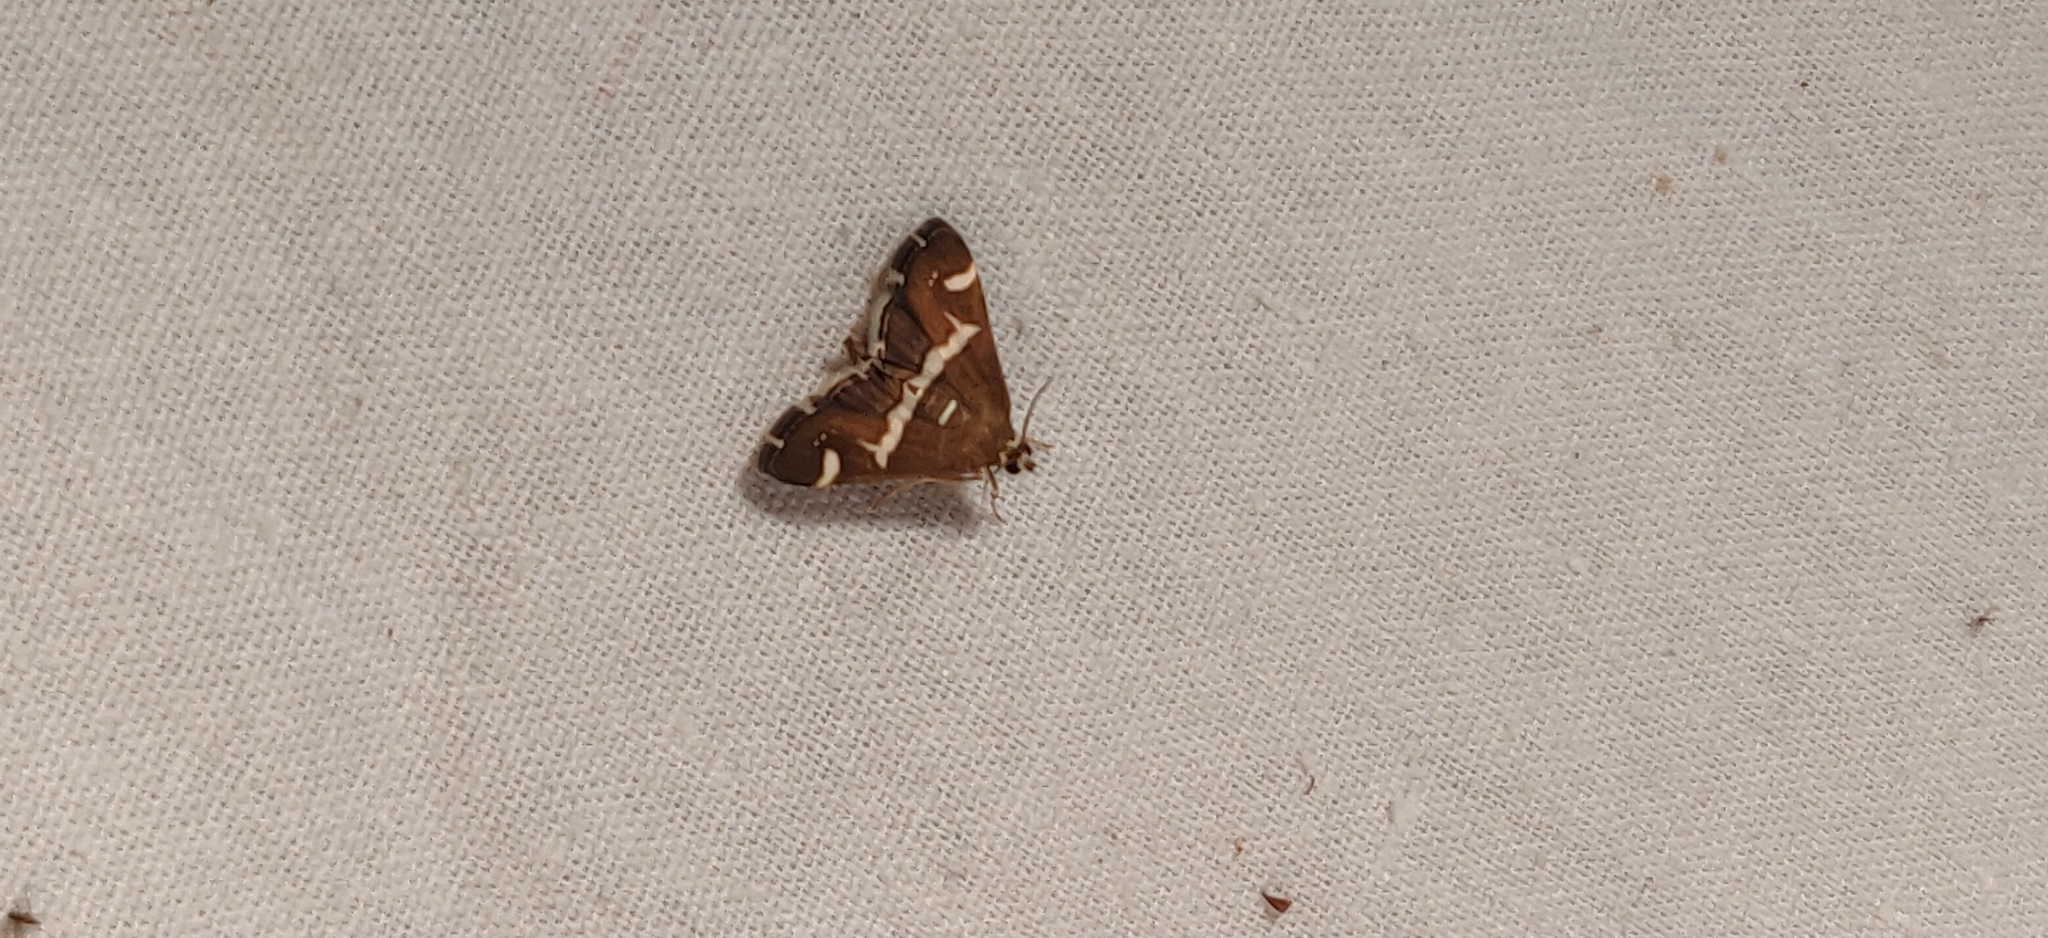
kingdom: Animalia
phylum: Arthropoda
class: Insecta
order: Lepidoptera
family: Crambidae
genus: Spoladea
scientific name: Spoladea recurvalis
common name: Beet webworm moth
